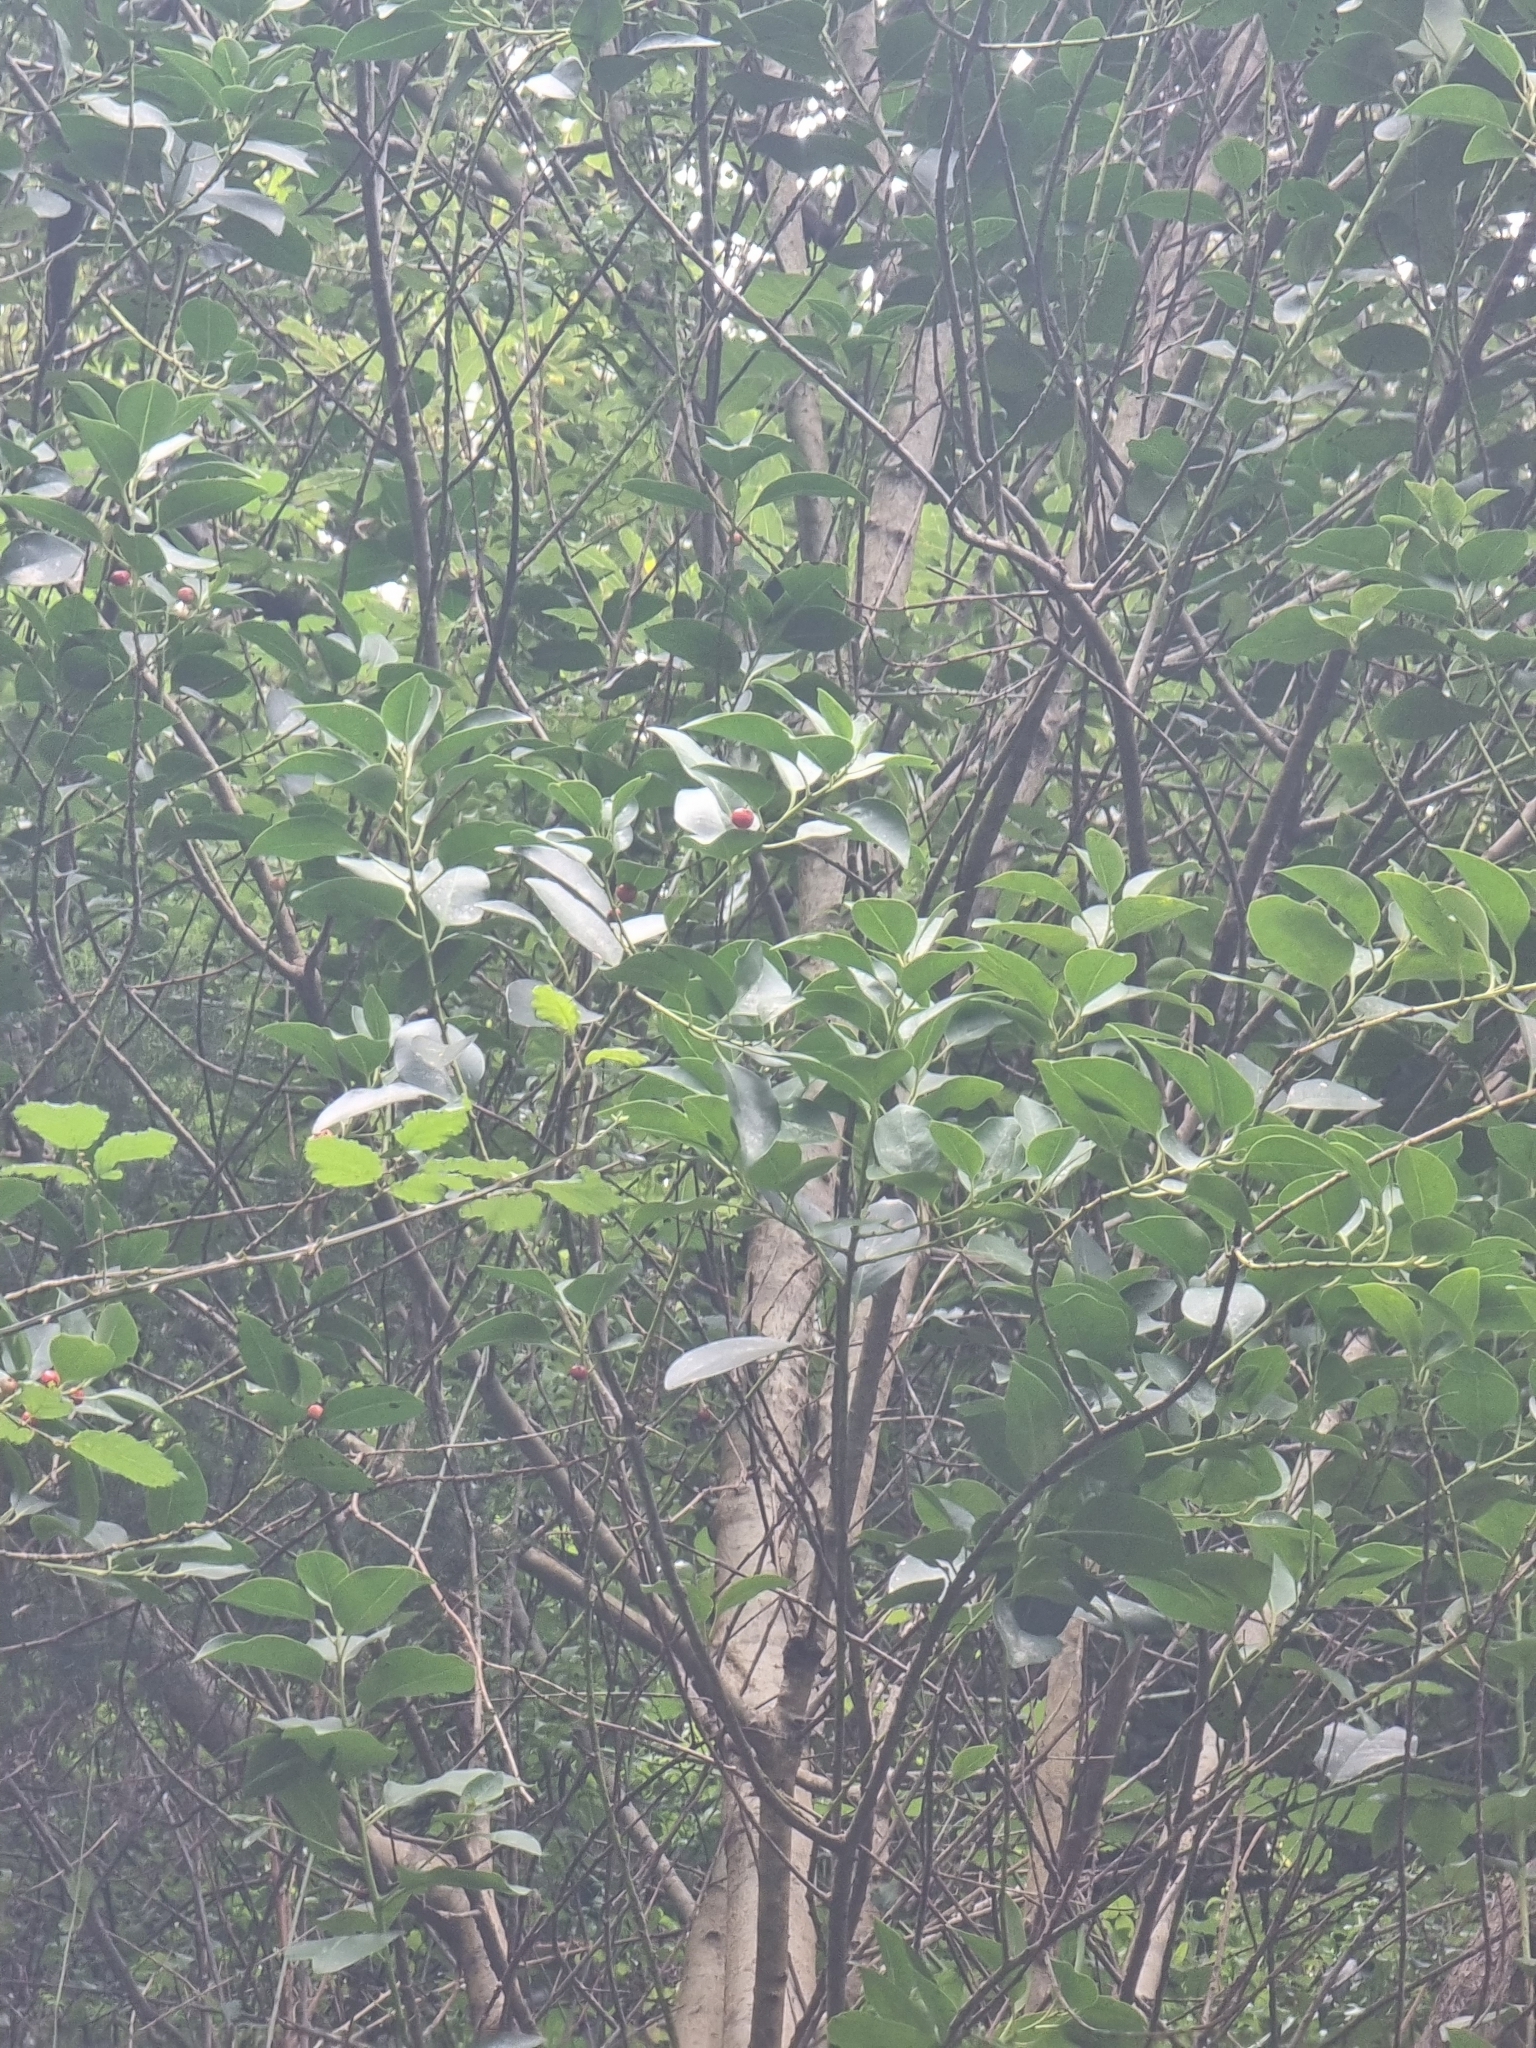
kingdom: Plantae
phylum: Tracheophyta
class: Magnoliopsida
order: Aquifoliales
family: Aquifoliaceae
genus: Ilex
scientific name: Ilex canariensis
